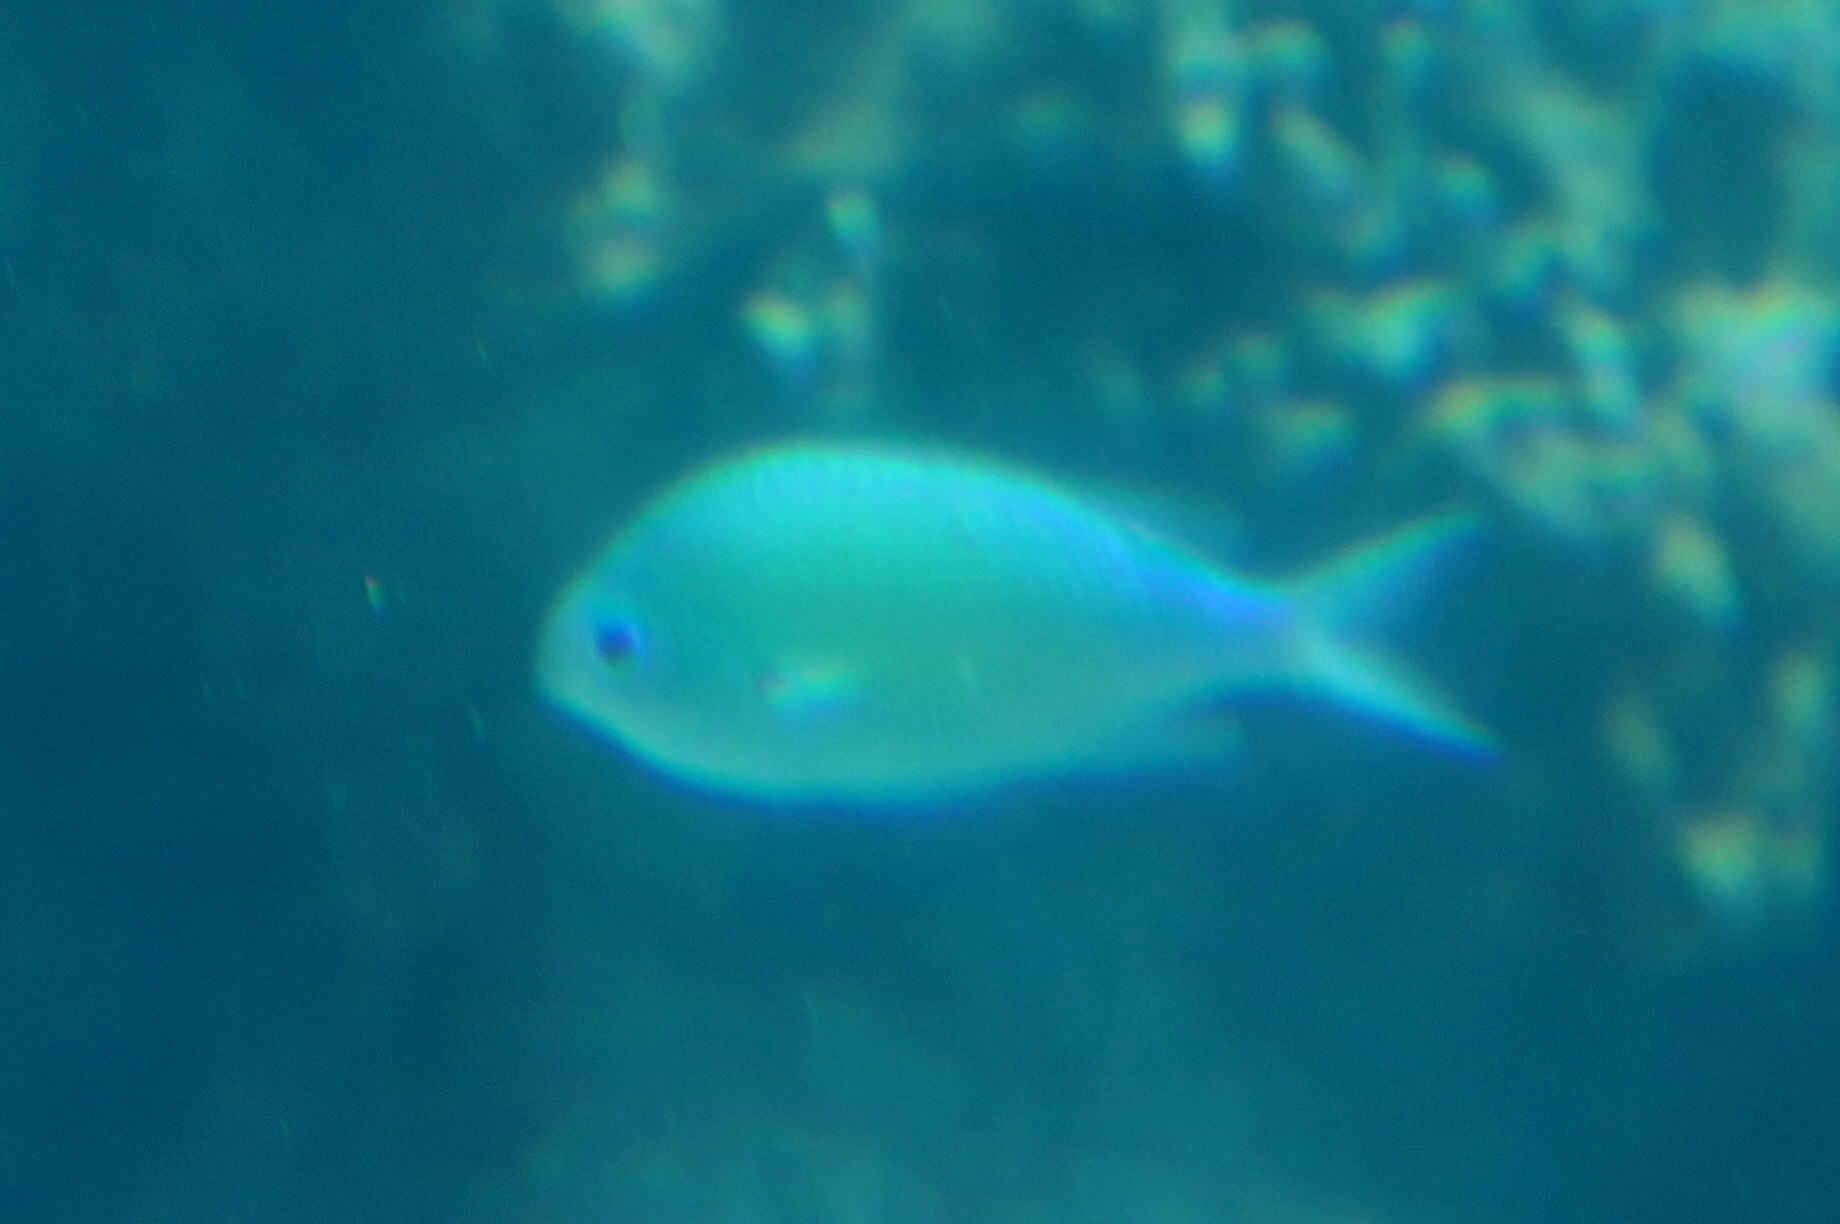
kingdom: Animalia
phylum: Chordata
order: Perciformes
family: Pomacentridae
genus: Chromis
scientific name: Chromis viridis
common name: Blue-green chromis
